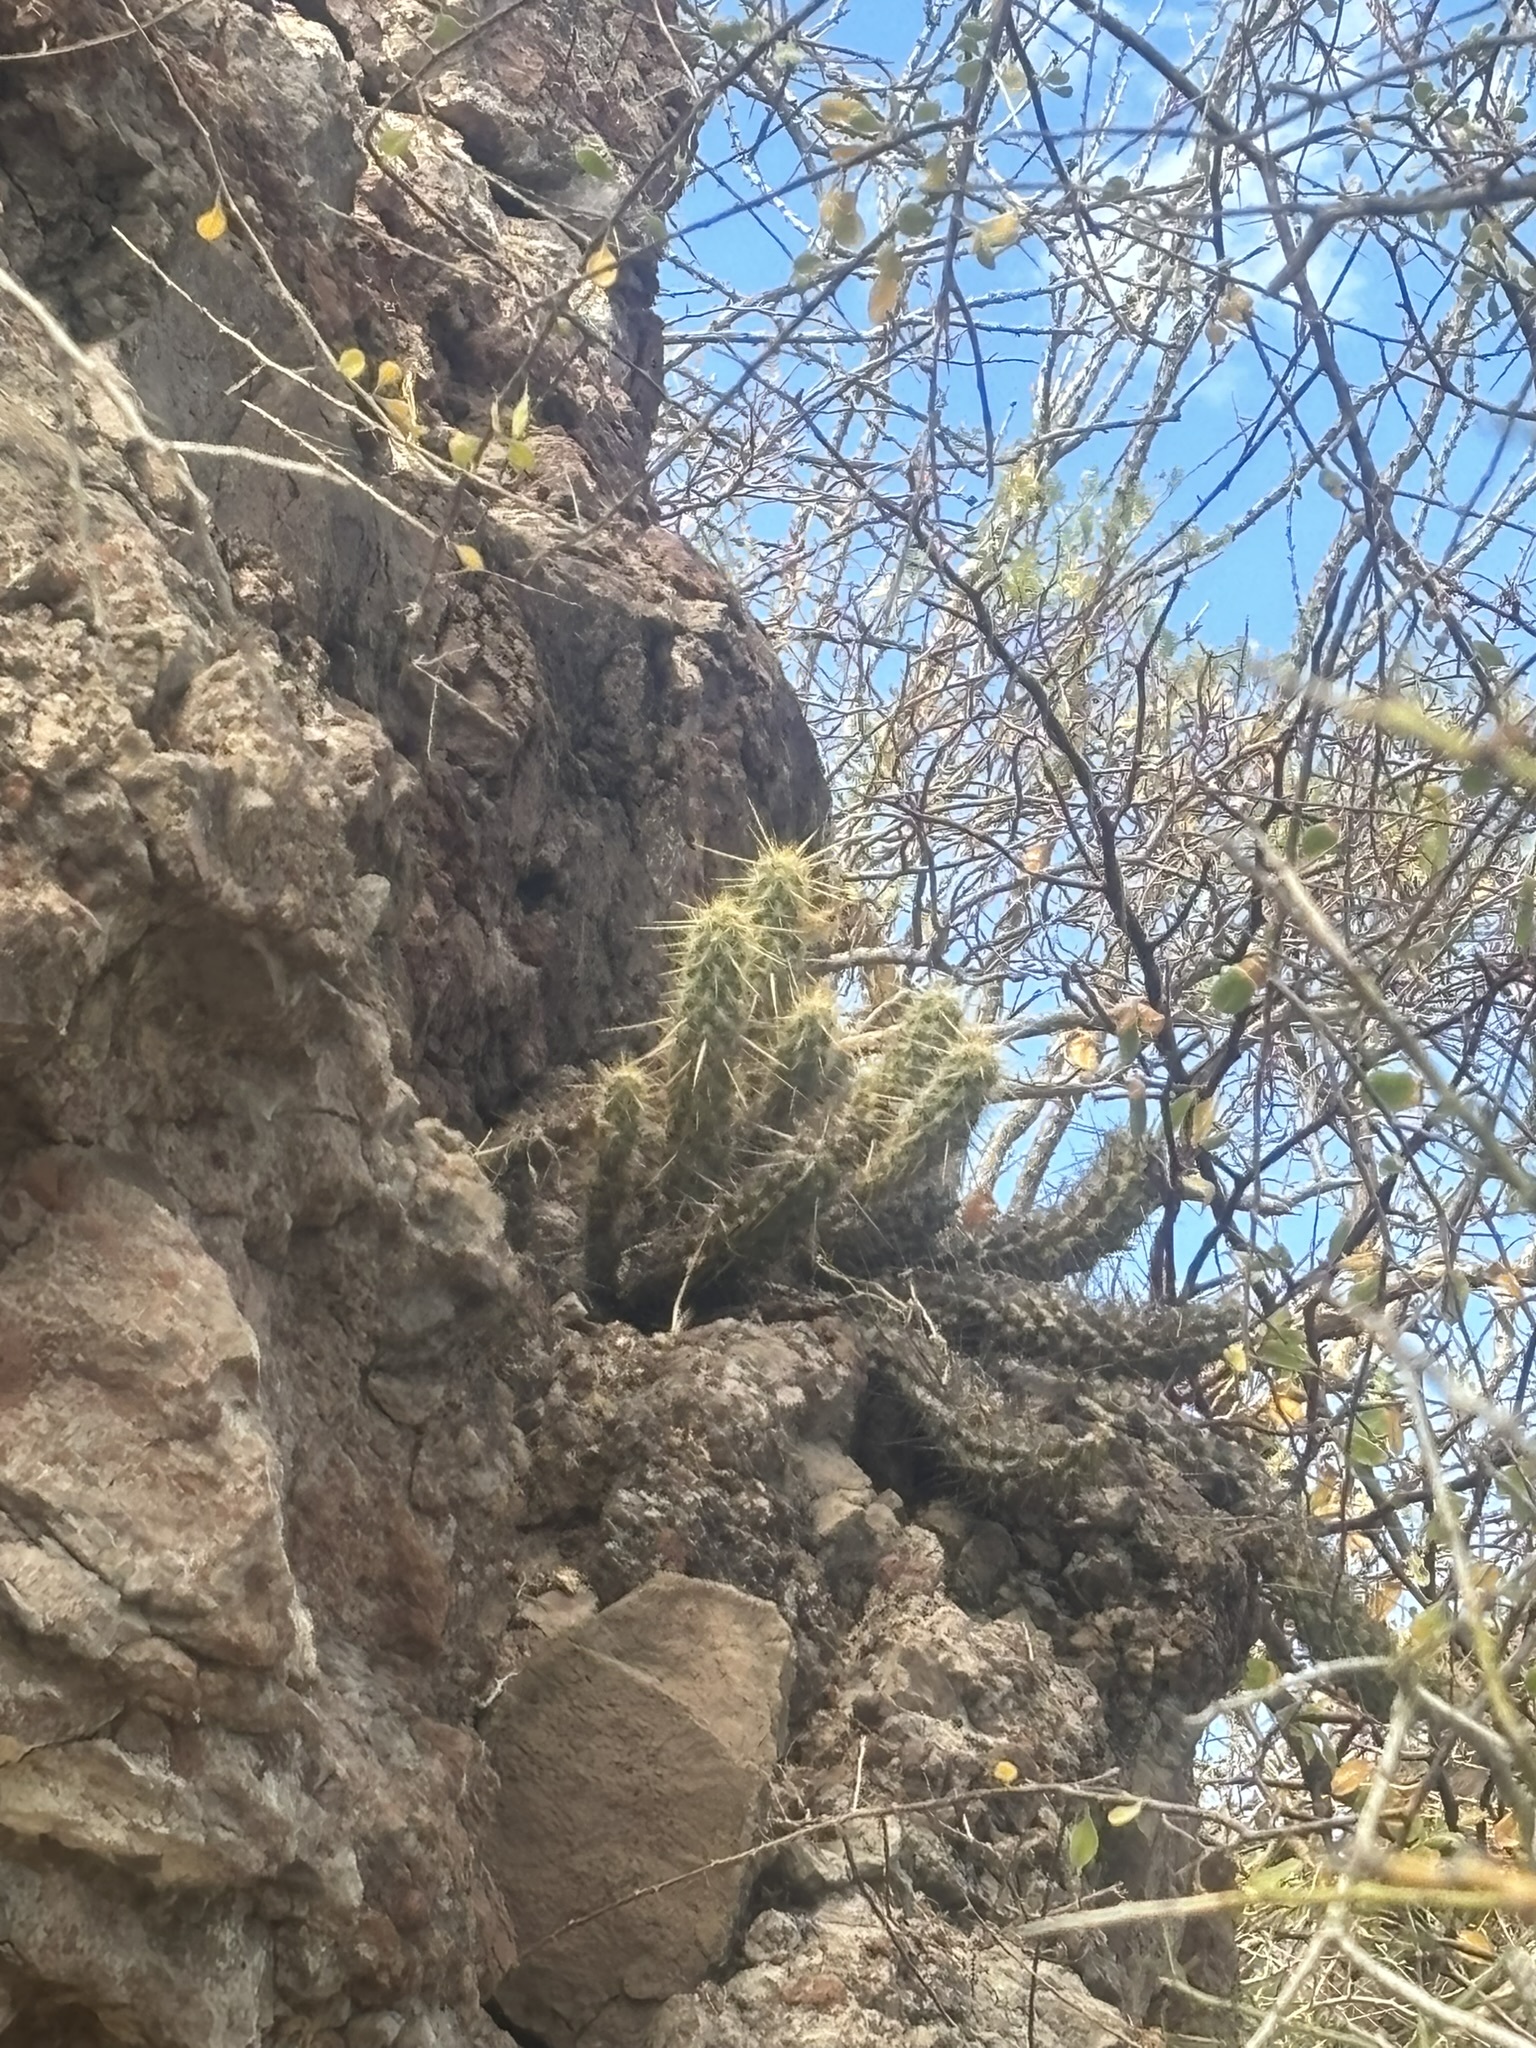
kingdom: Plantae
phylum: Tracheophyta
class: Magnoliopsida
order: Caryophyllales
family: Cactaceae
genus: Echinocereus
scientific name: Echinocereus brandegeei
